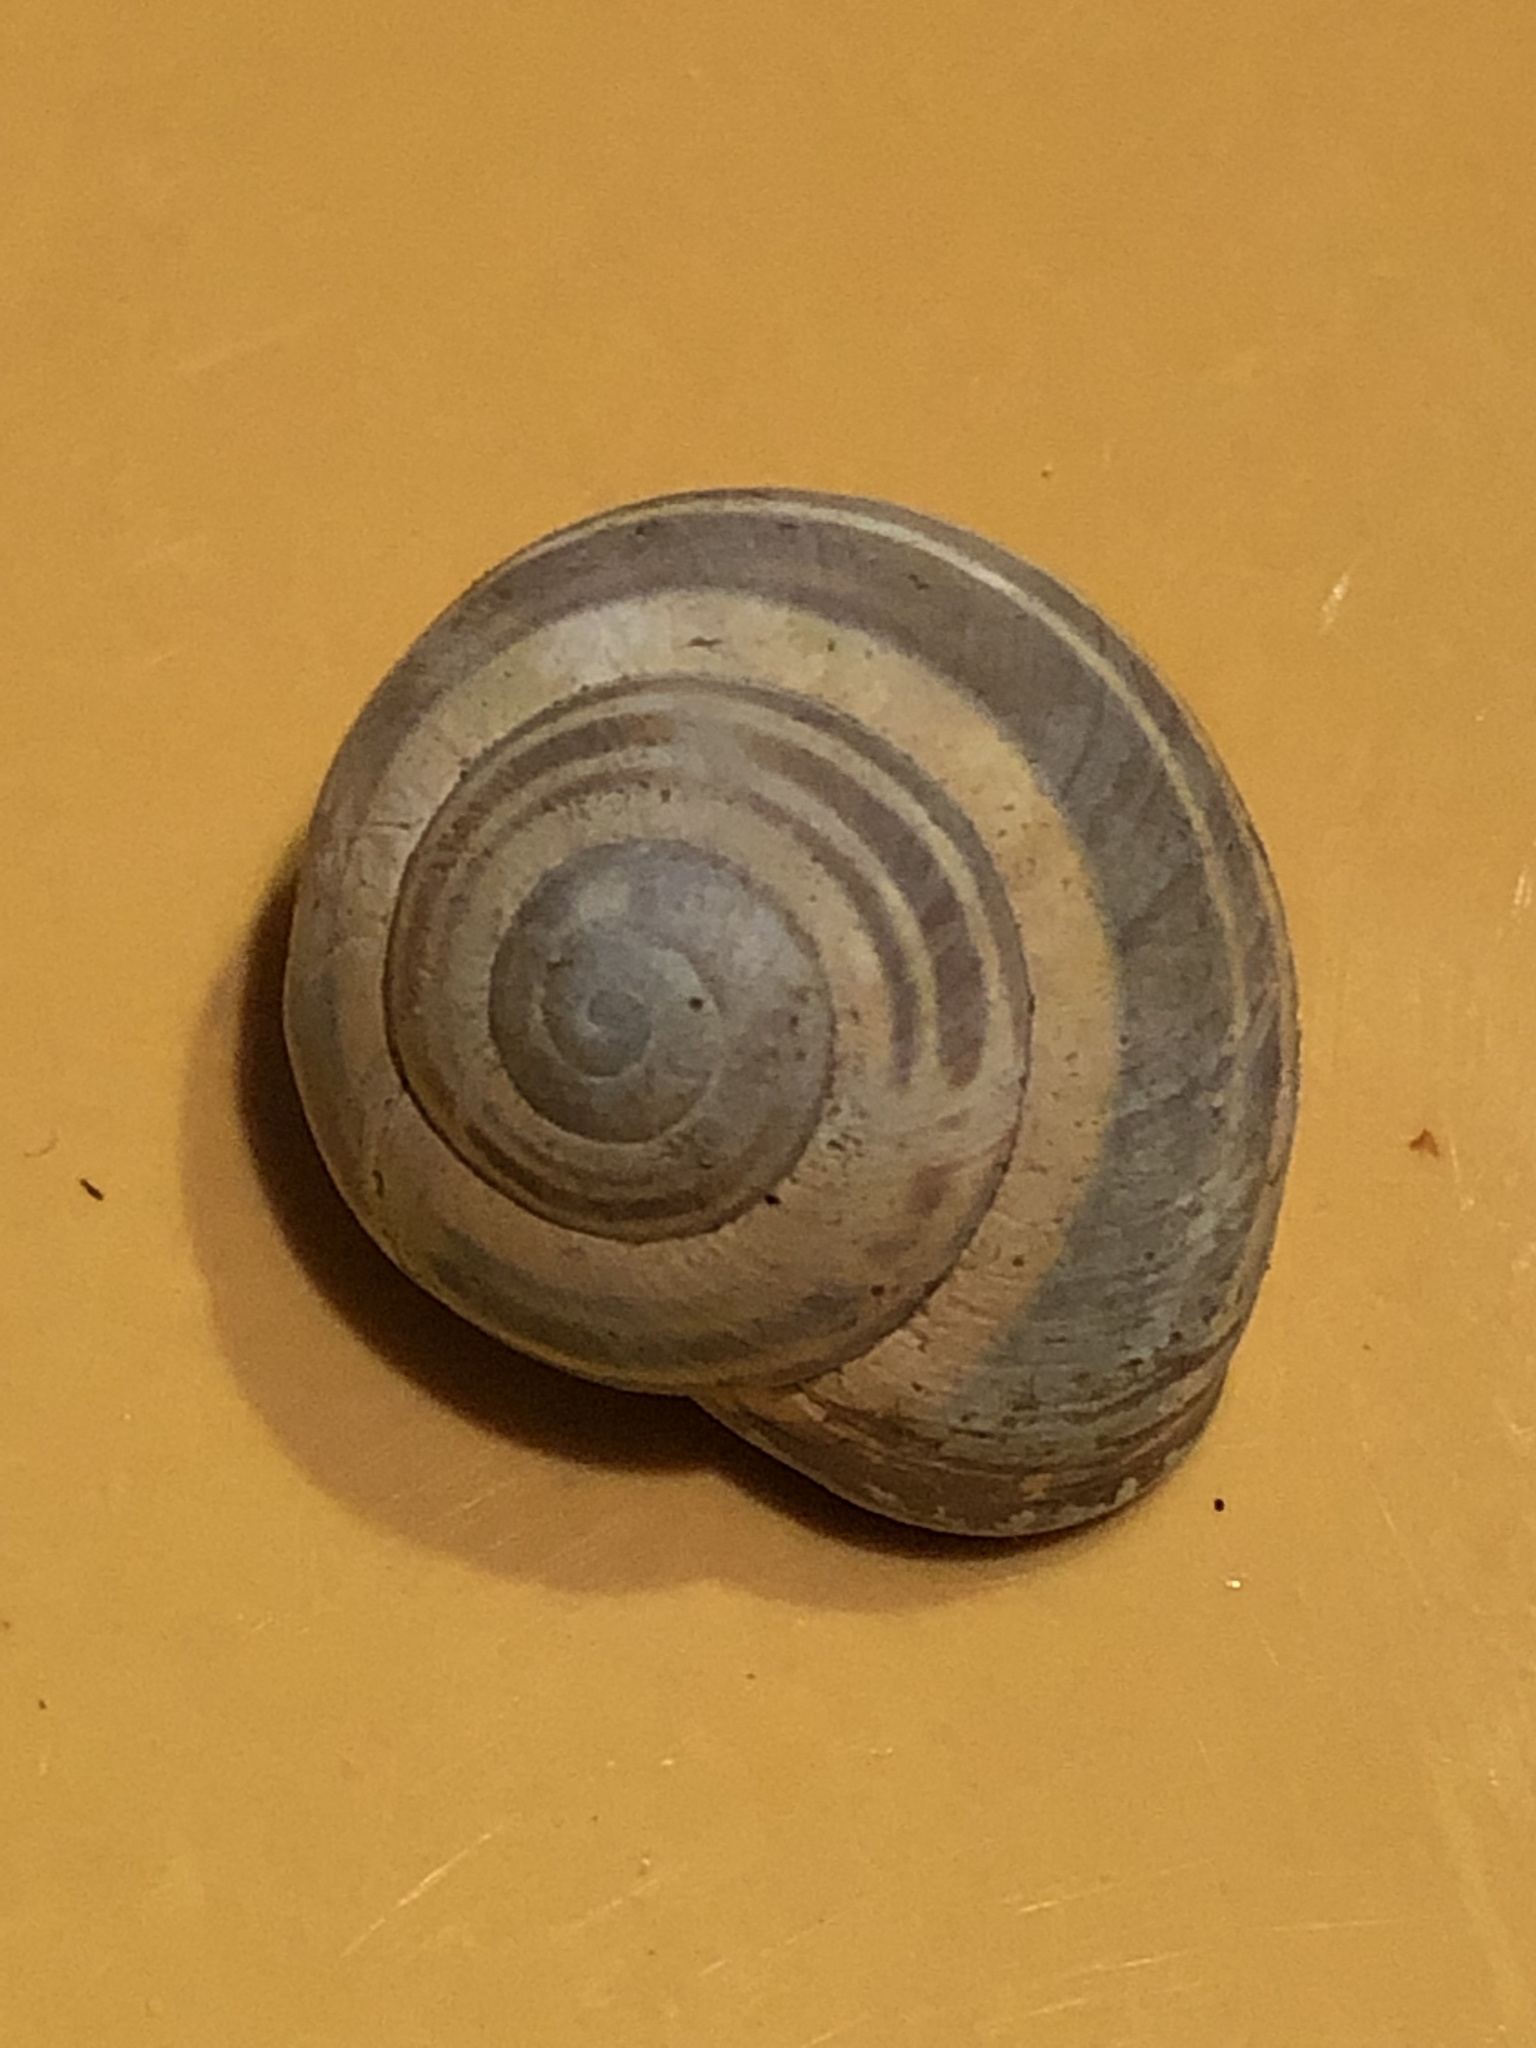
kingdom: Animalia
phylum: Mollusca
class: Gastropoda
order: Stylommatophora
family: Helicidae
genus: Cepaea
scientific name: Cepaea nemoralis
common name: Grovesnail
